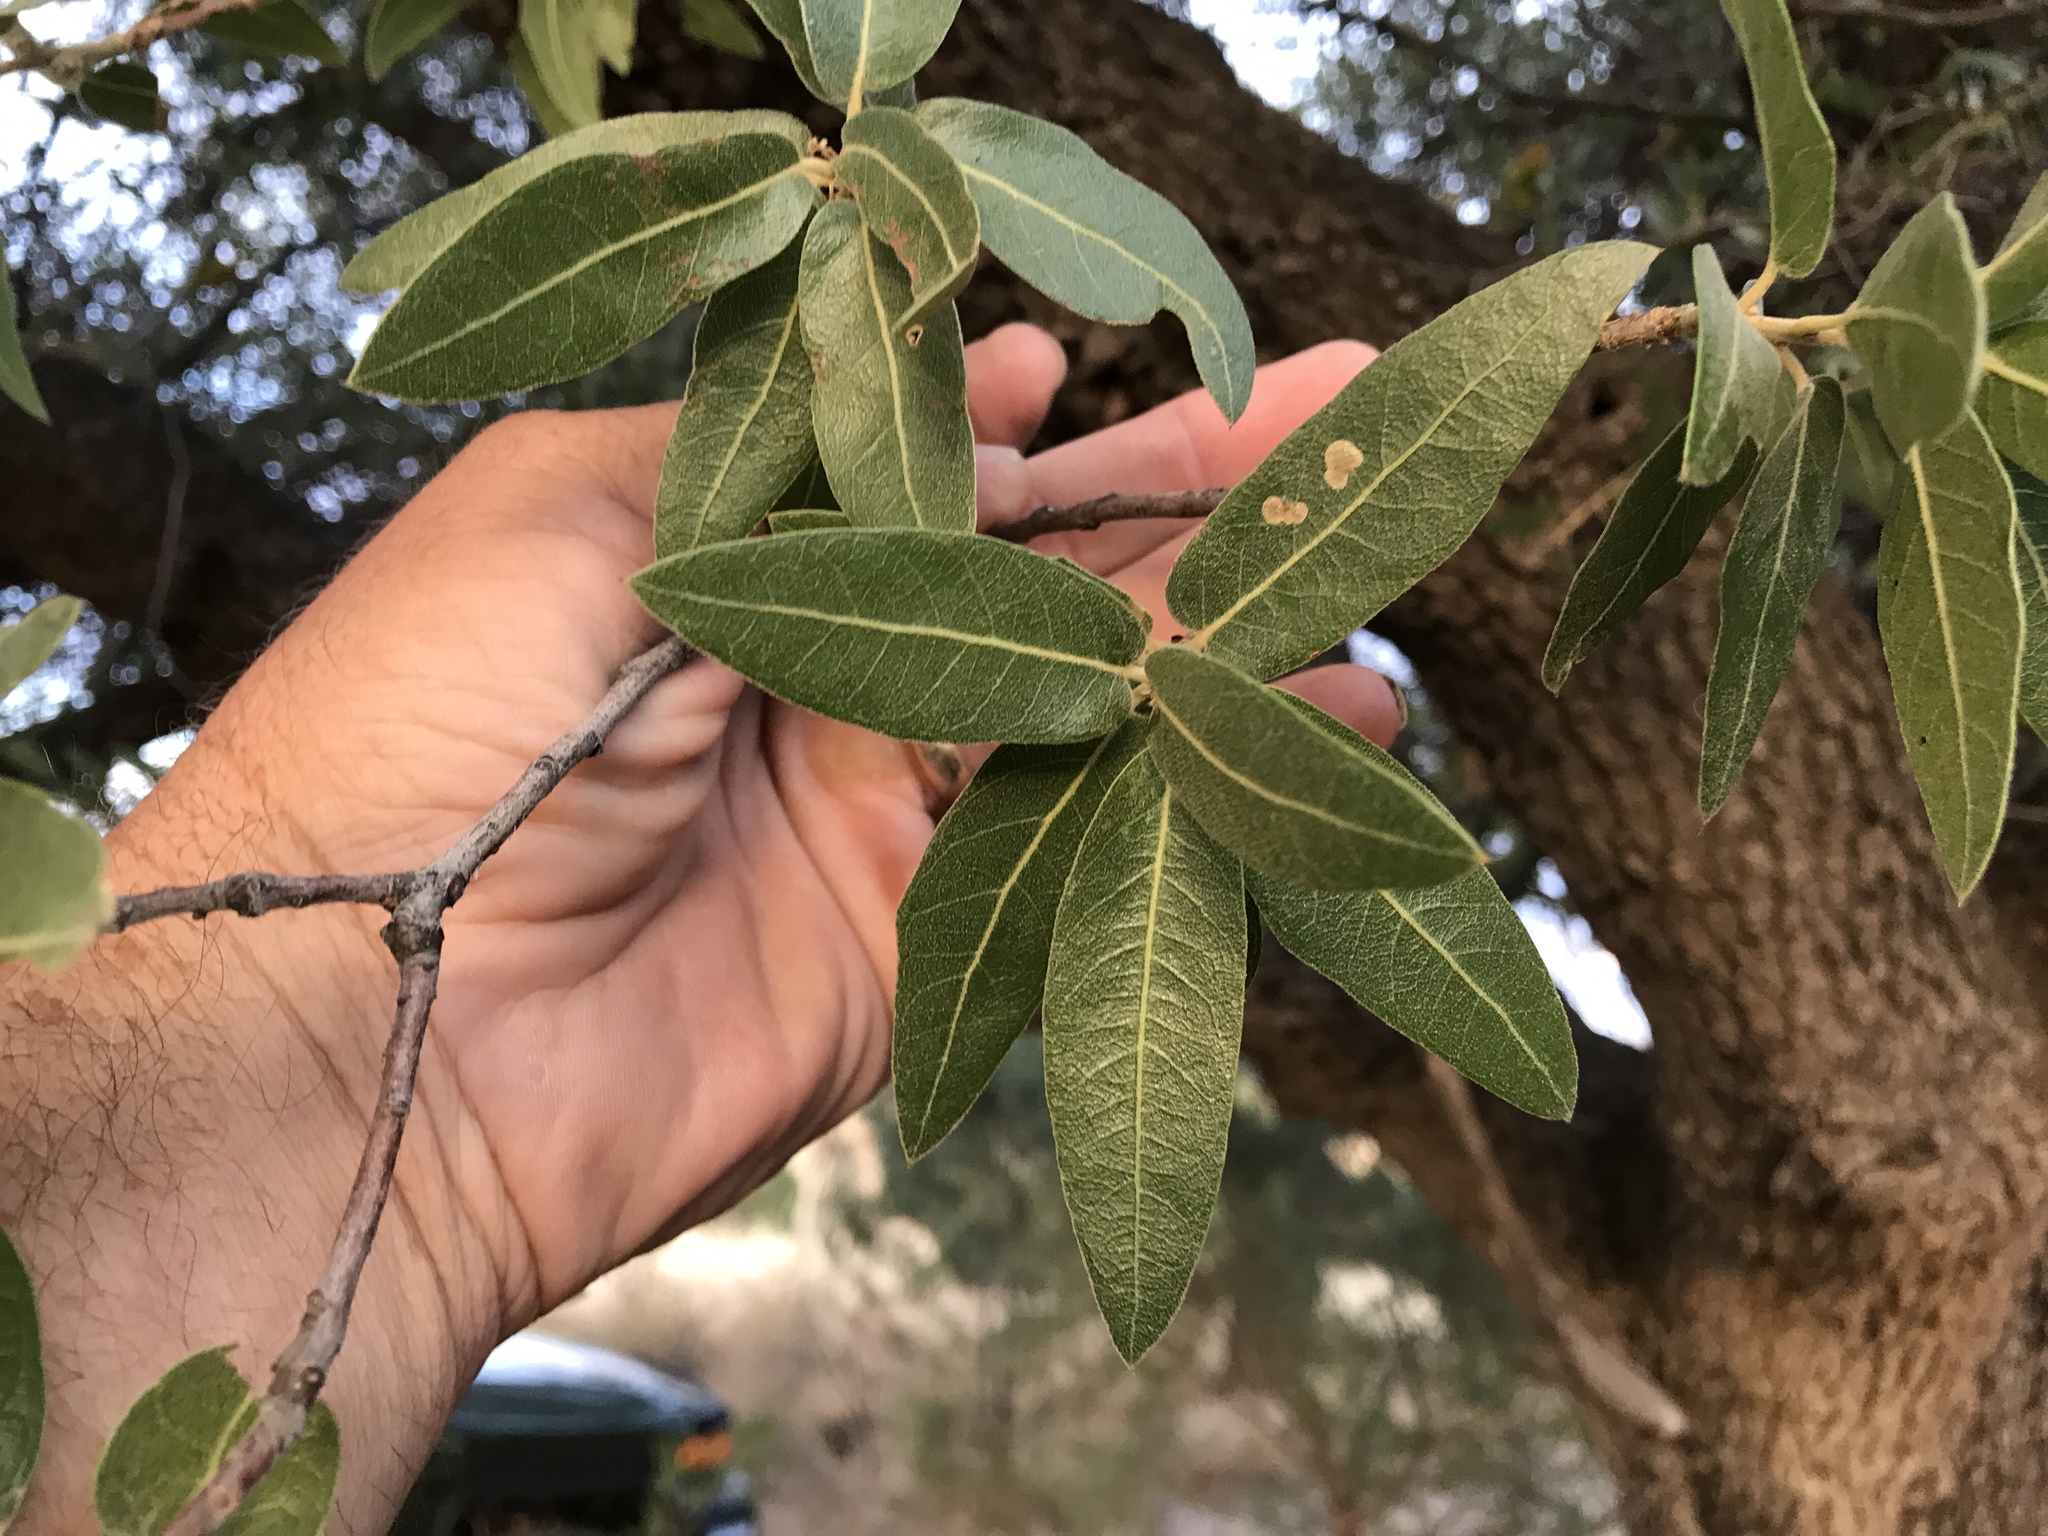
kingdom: Plantae
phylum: Tracheophyta
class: Magnoliopsida
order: Fagales
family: Fagaceae
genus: Quercus
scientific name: Quercus arizonica
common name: Arizona white oak
